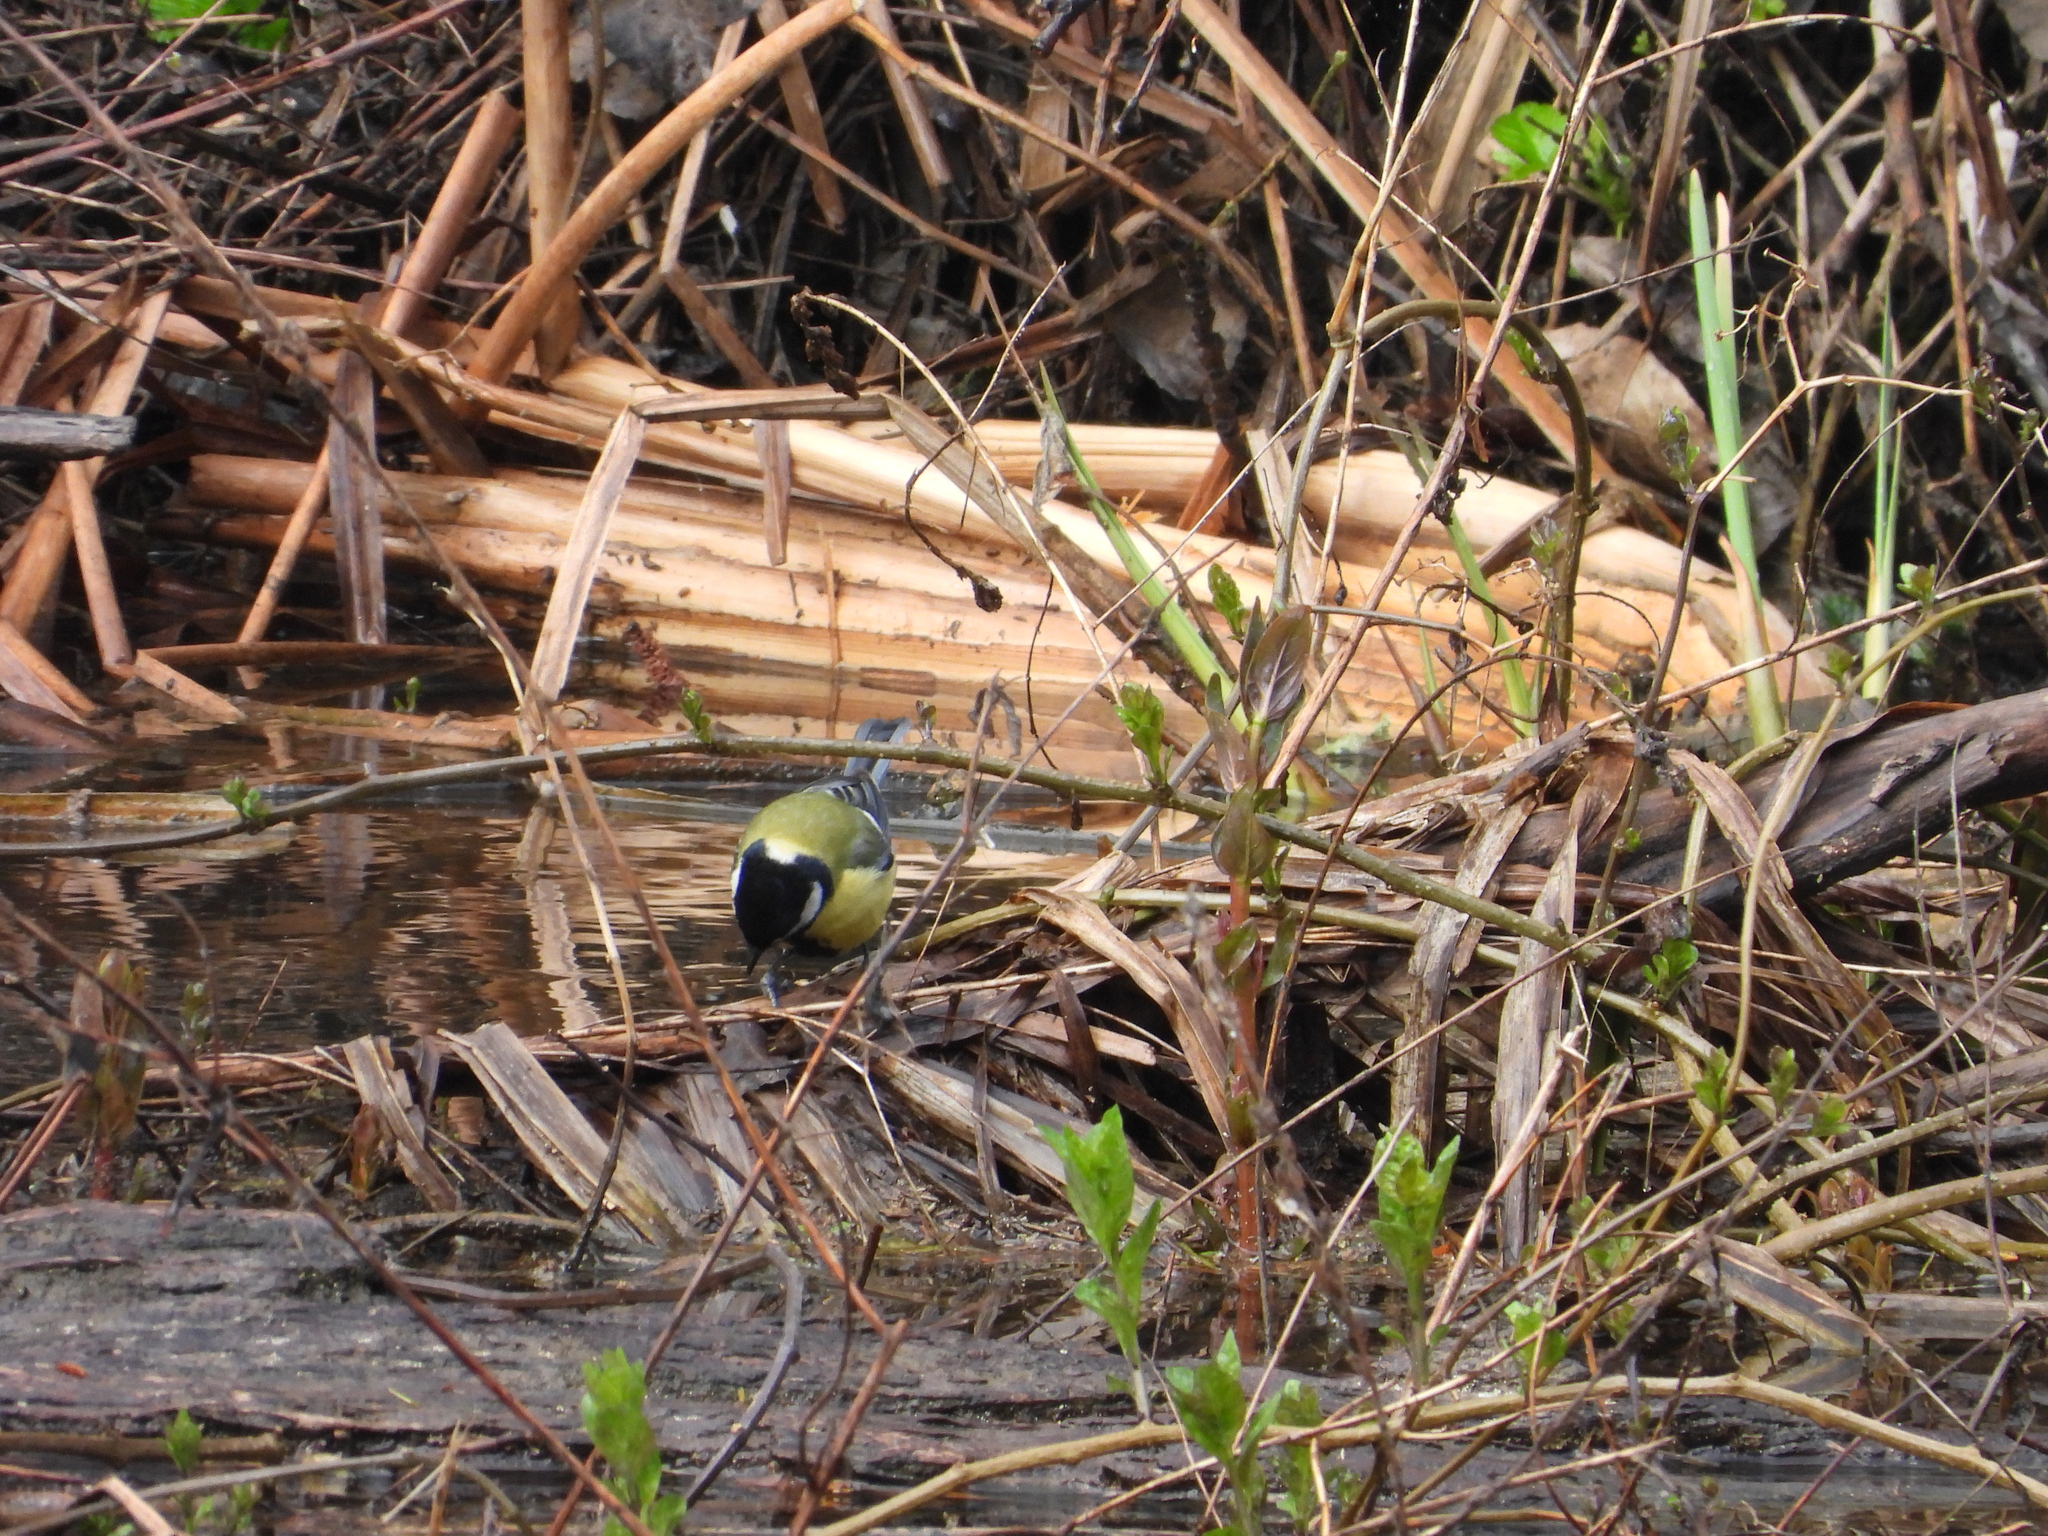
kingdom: Animalia
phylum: Chordata
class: Aves
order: Passeriformes
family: Paridae
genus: Parus
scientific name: Parus major
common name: Great tit
